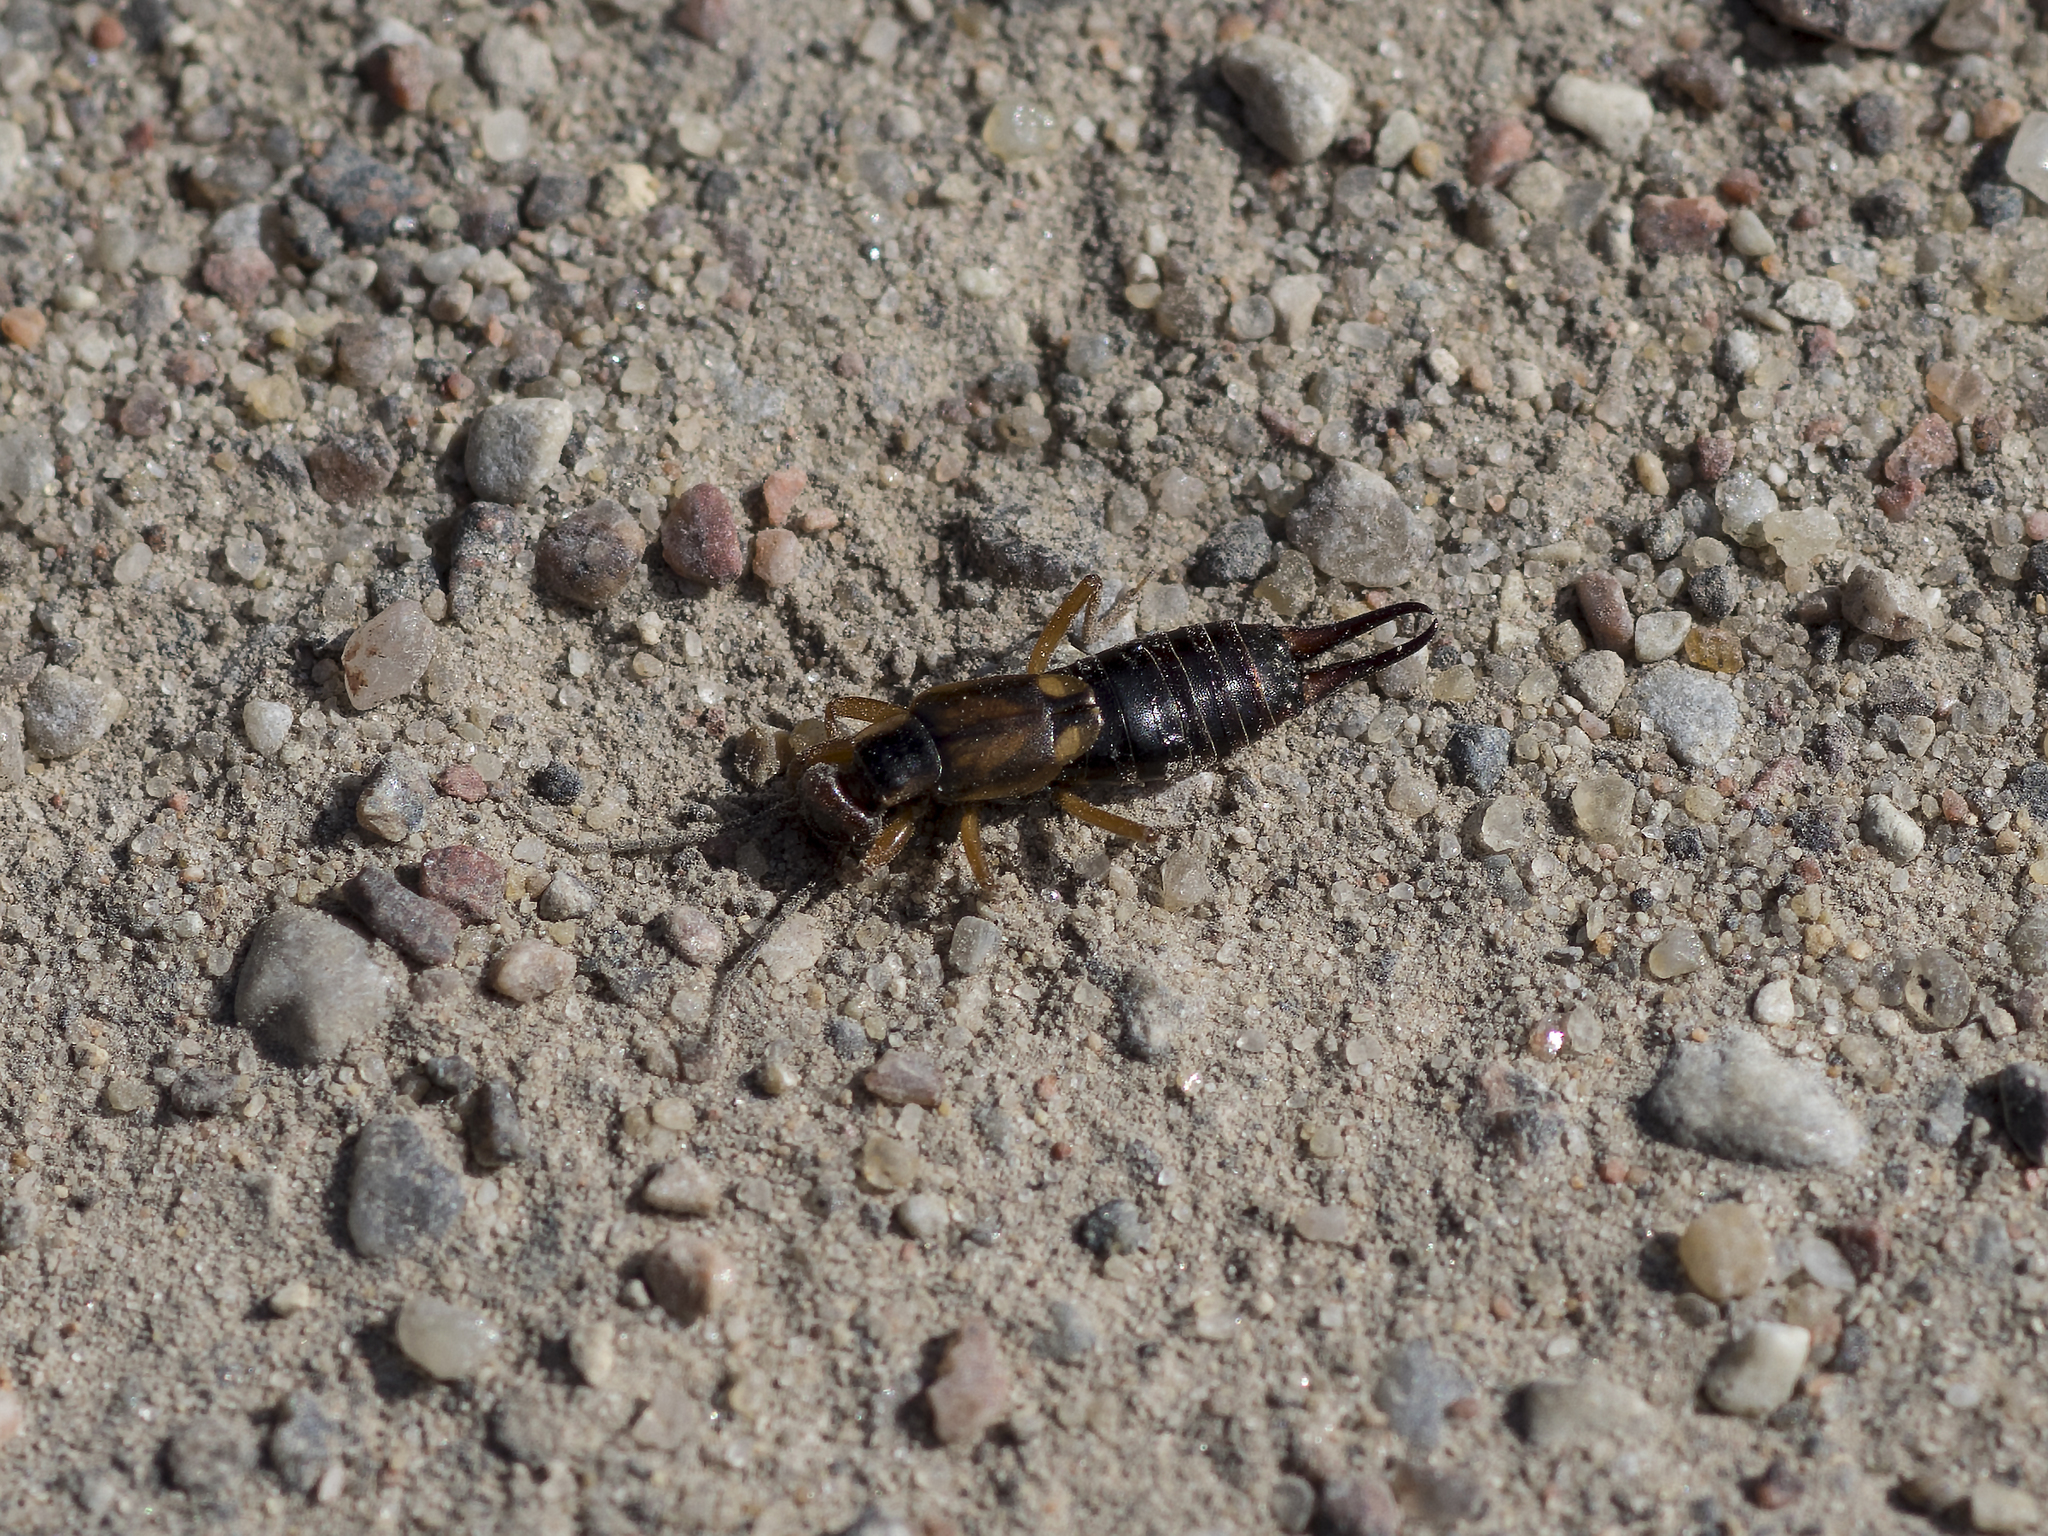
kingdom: Animalia
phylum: Arthropoda
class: Insecta
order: Dermaptera
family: Forficulidae
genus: Forficula
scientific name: Forficula
